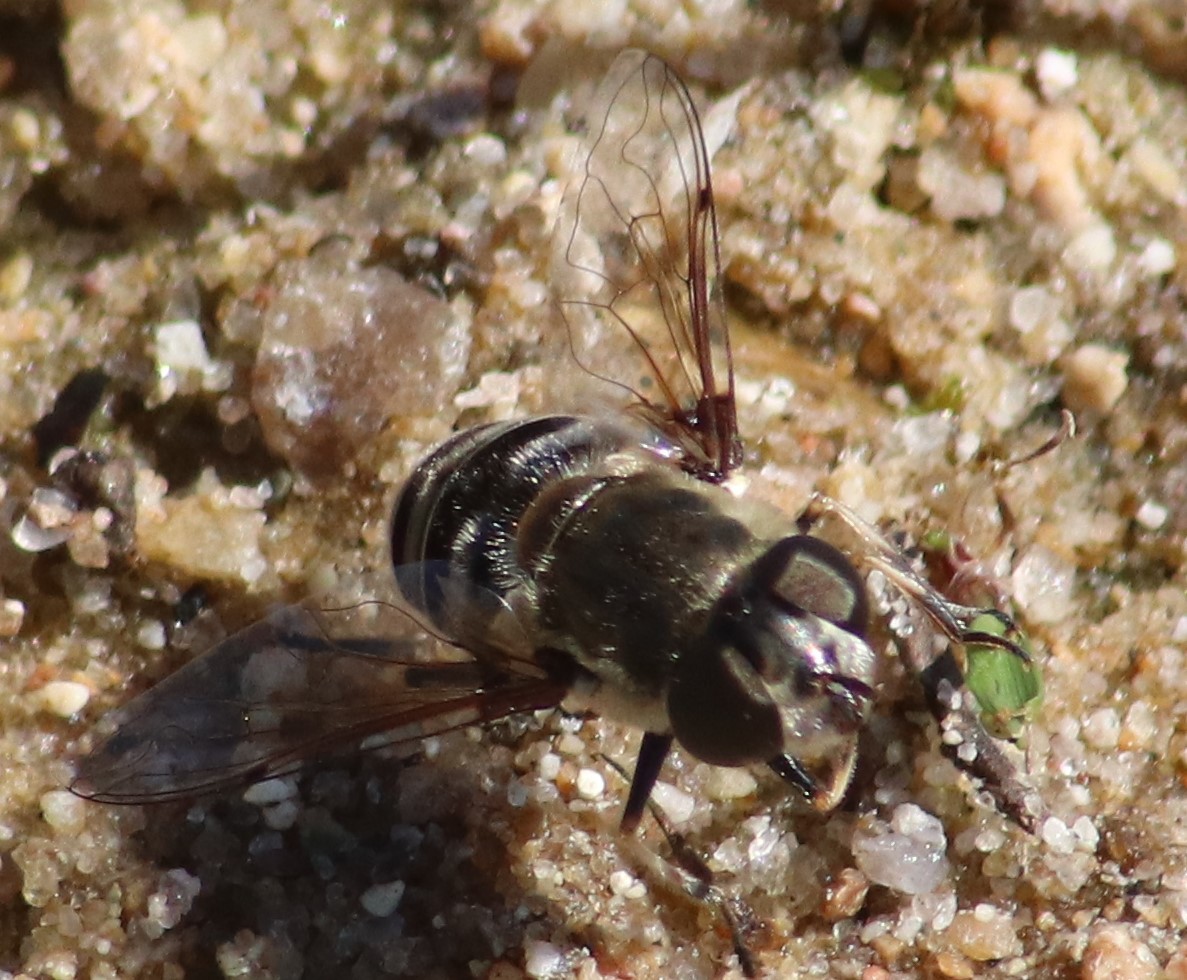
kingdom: Animalia
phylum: Arthropoda
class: Insecta
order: Diptera
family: Syrphidae
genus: Eristalis
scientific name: Eristalis dimidiata
